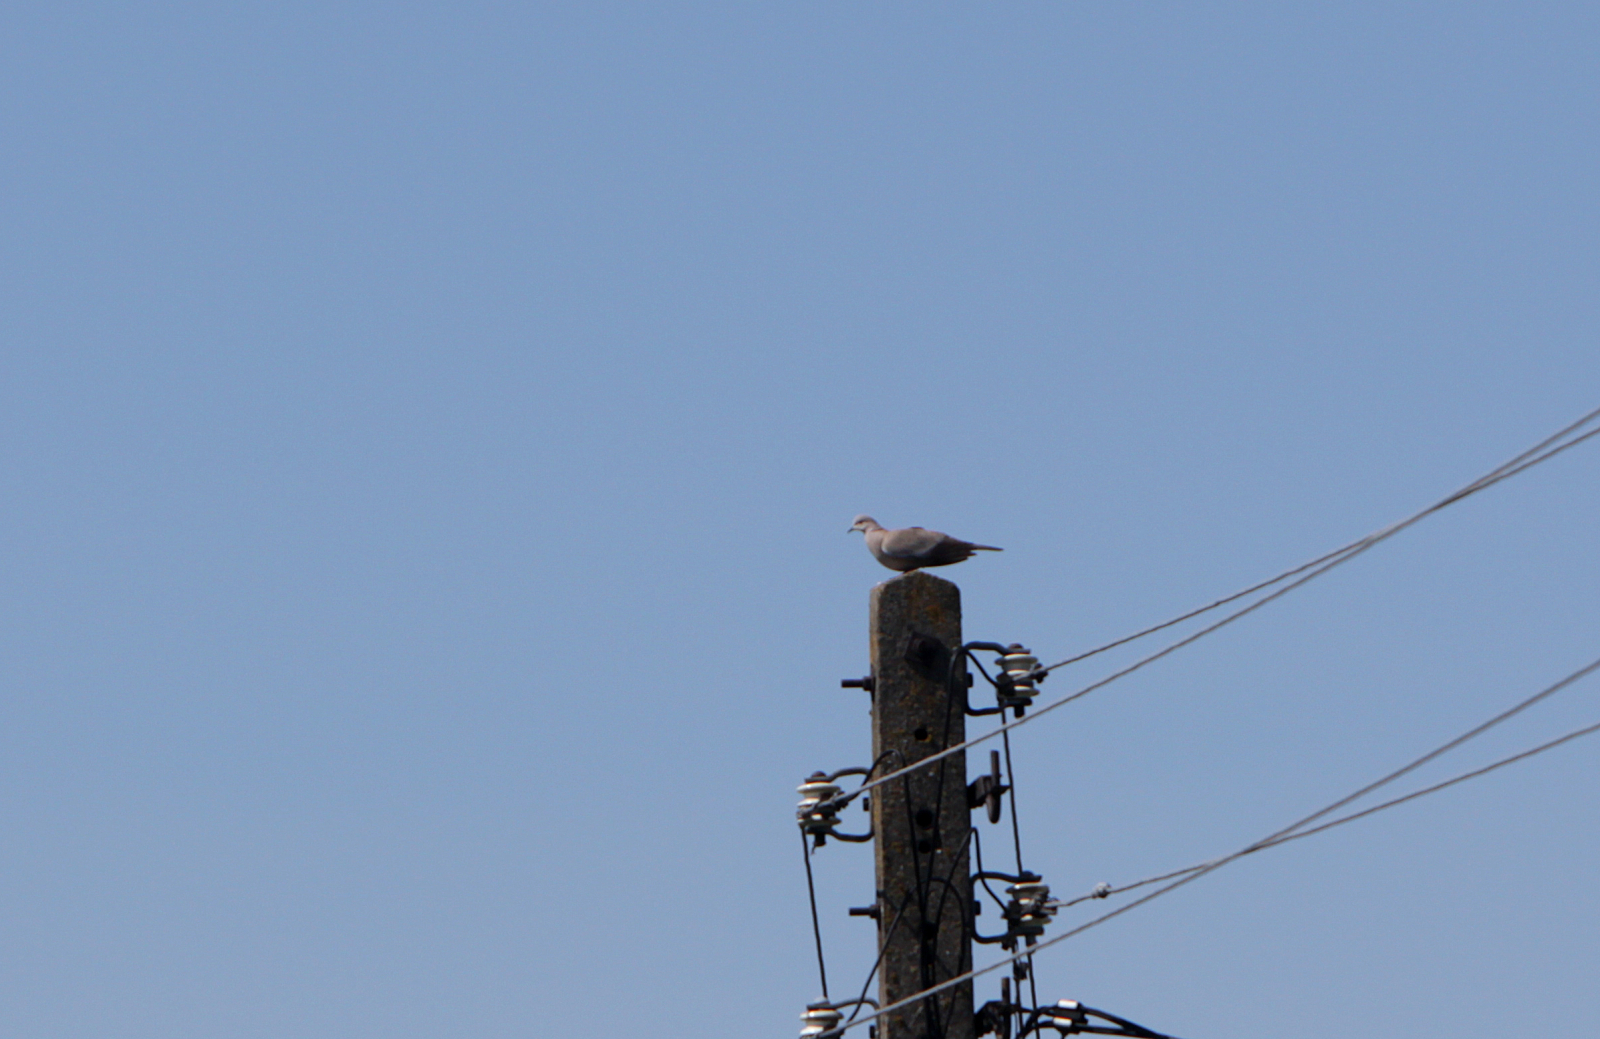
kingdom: Animalia
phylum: Chordata
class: Aves
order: Columbiformes
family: Columbidae
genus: Streptopelia
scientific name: Streptopelia decaocto
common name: Eurasian collared dove
